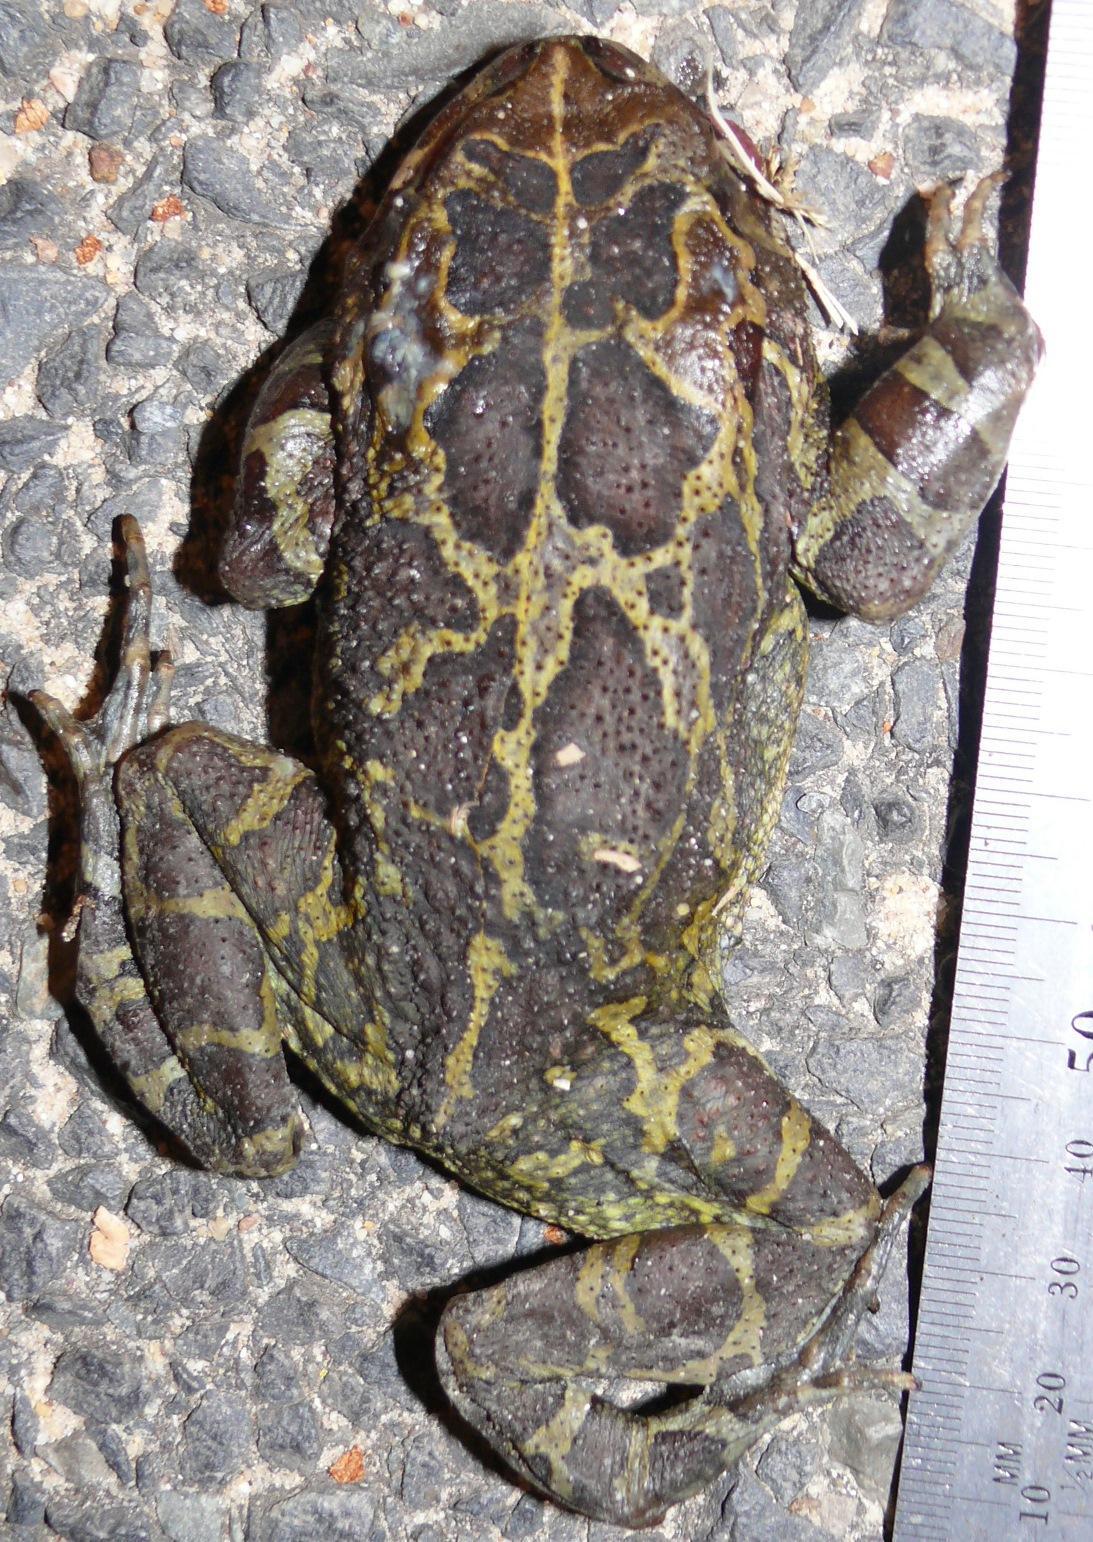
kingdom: Animalia
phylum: Chordata
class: Amphibia
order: Anura
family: Bufonidae
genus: Sclerophrys
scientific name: Sclerophrys pantherina
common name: Panther toad
